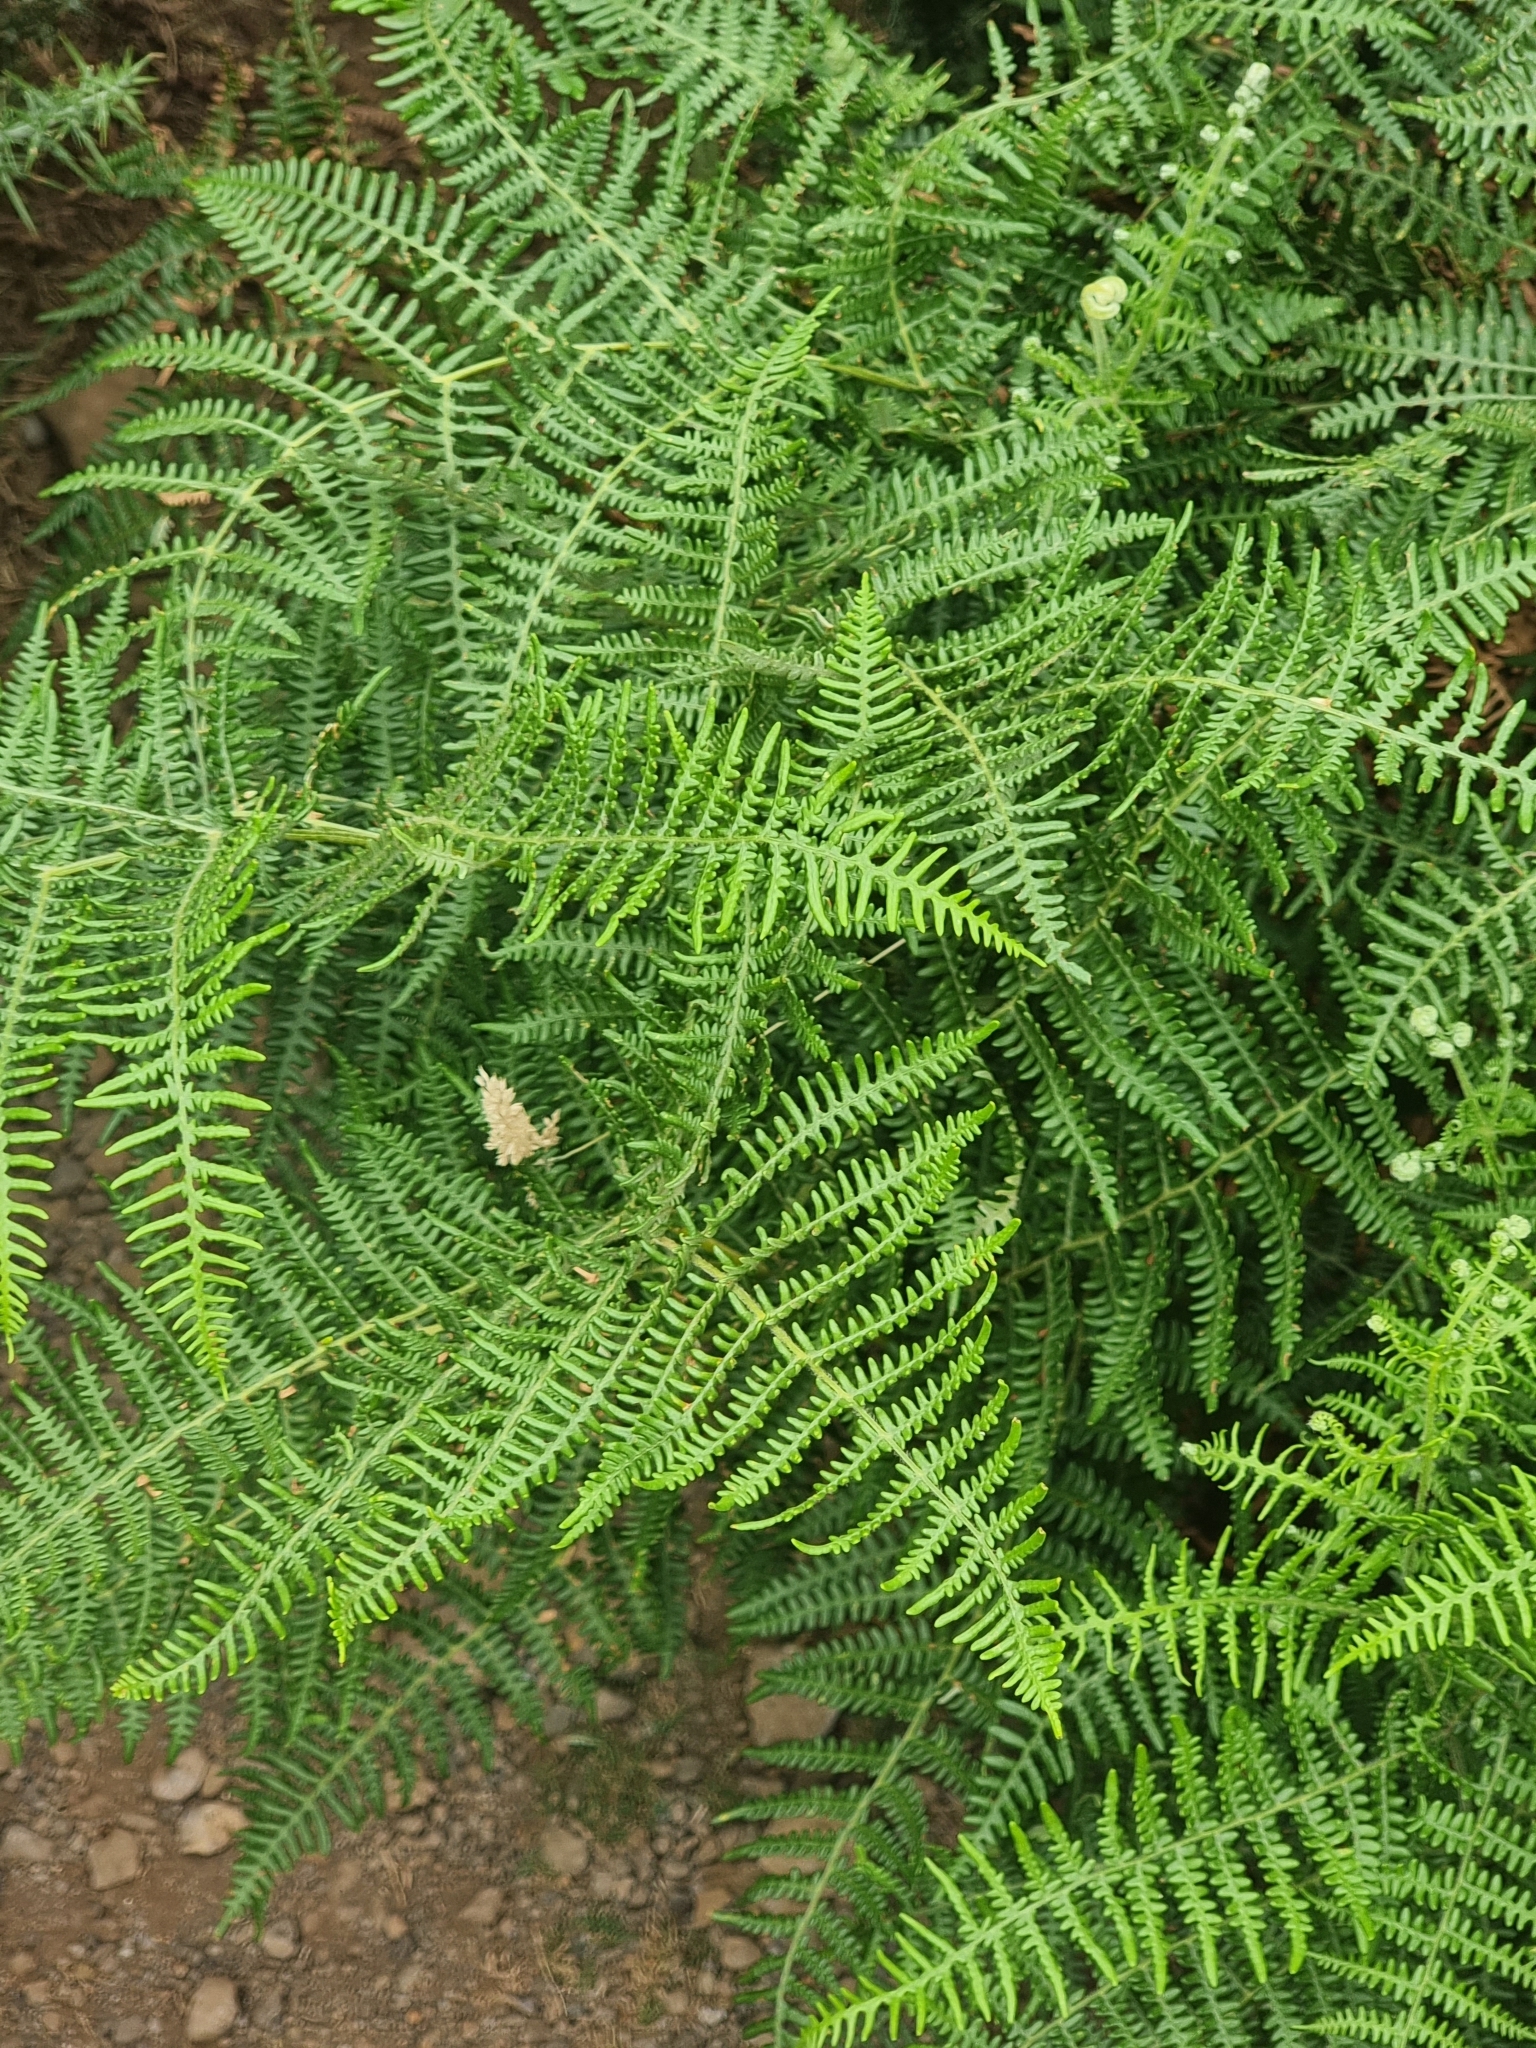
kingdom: Plantae
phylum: Tracheophyta
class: Polypodiopsida
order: Polypodiales
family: Dennstaedtiaceae
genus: Pteridium
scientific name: Pteridium aquilinum
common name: Bracken
